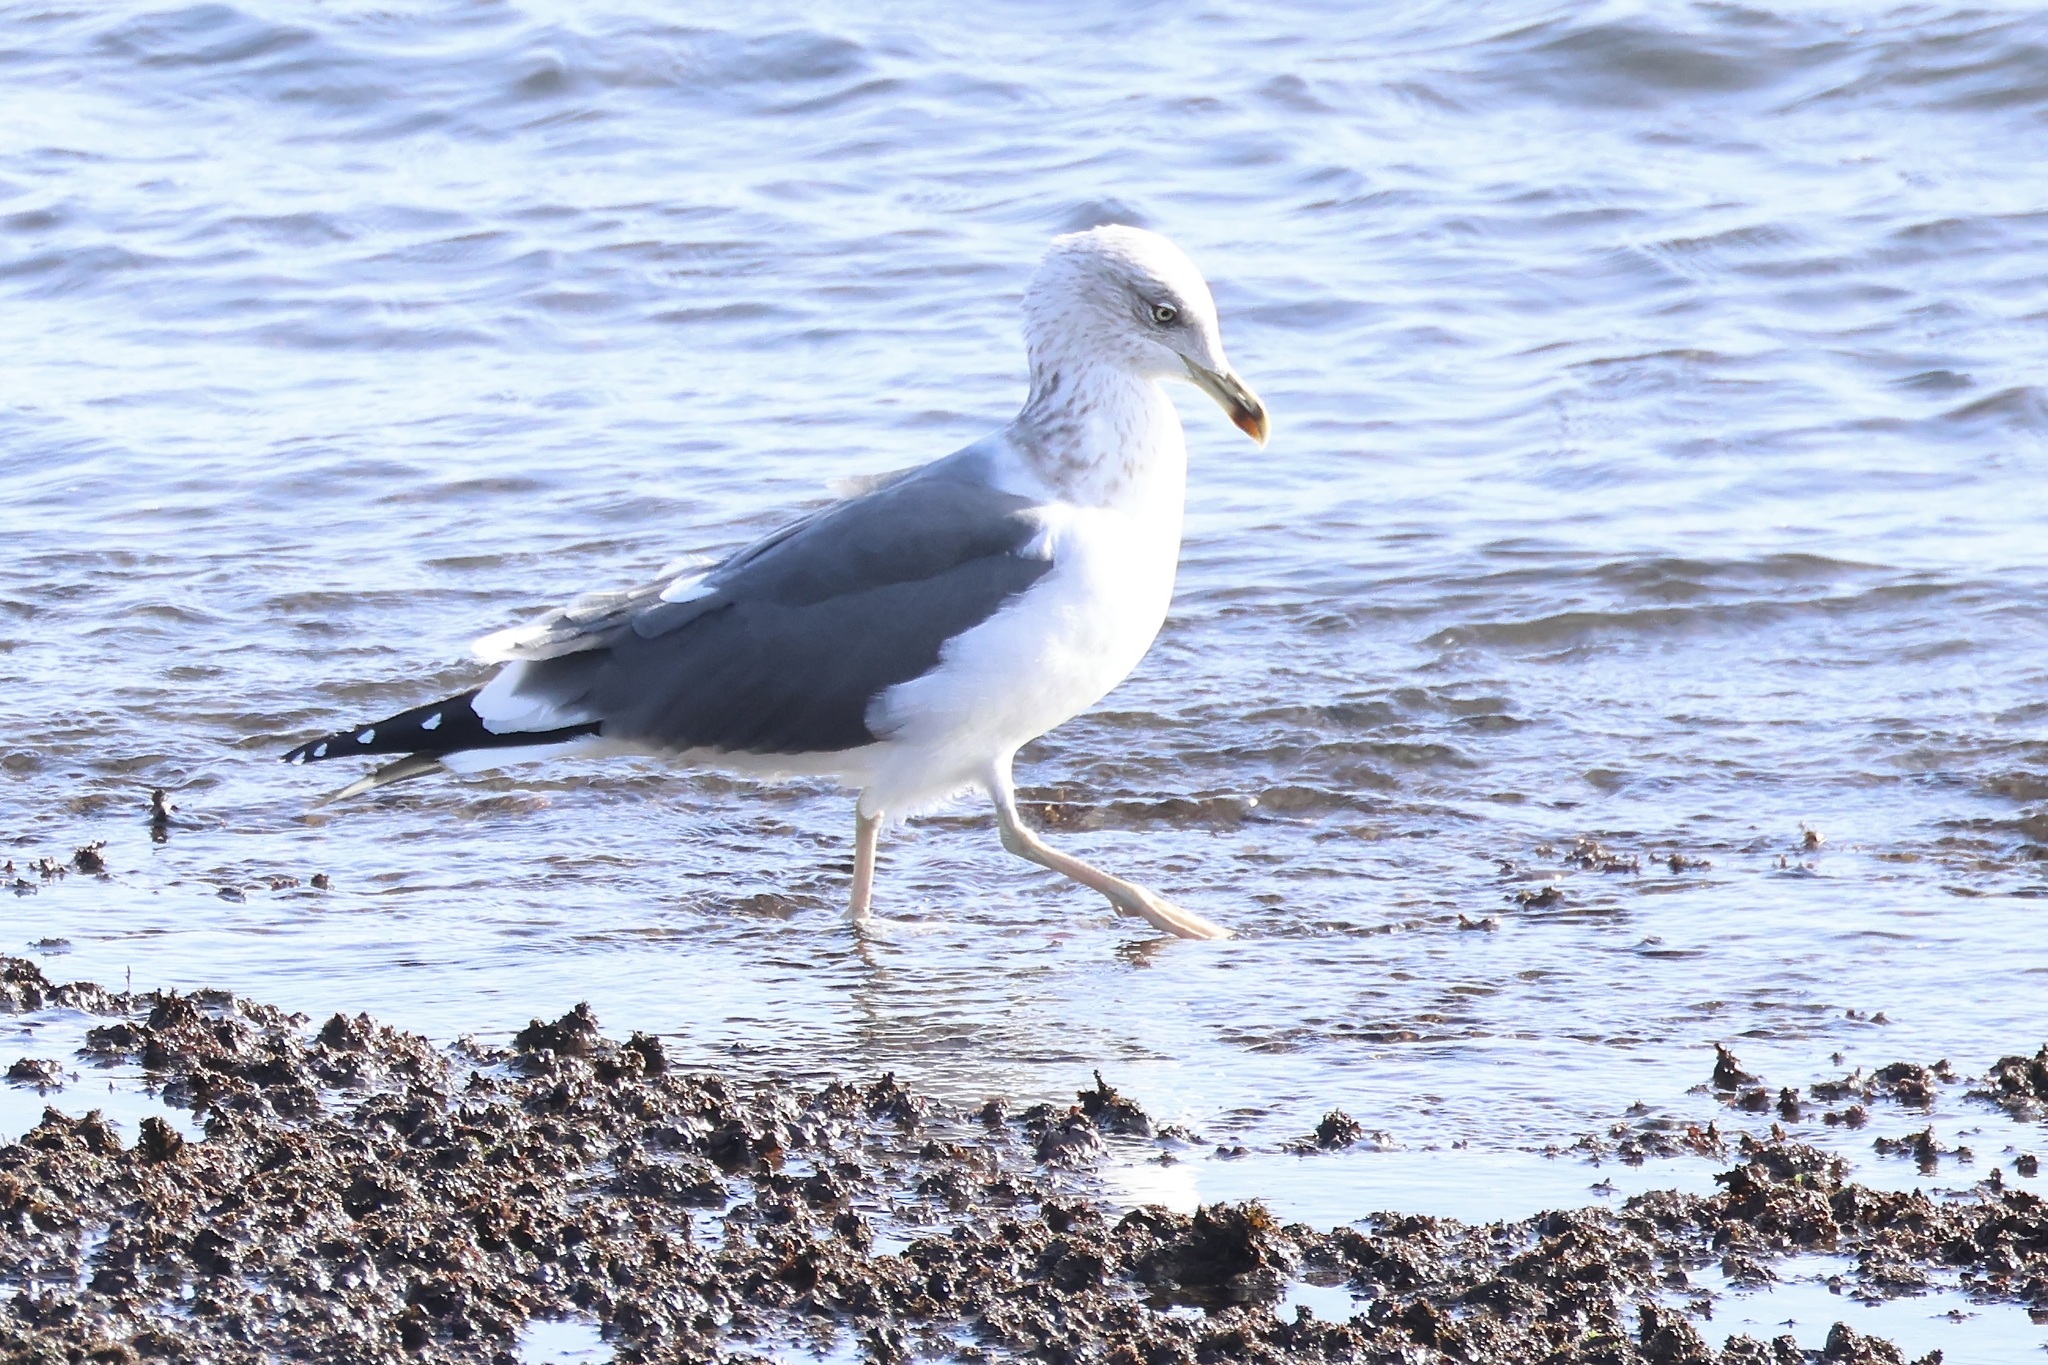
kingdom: Animalia
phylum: Chordata
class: Aves
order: Charadriiformes
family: Laridae
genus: Larus
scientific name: Larus fuscus
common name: Lesser black-backed gull
